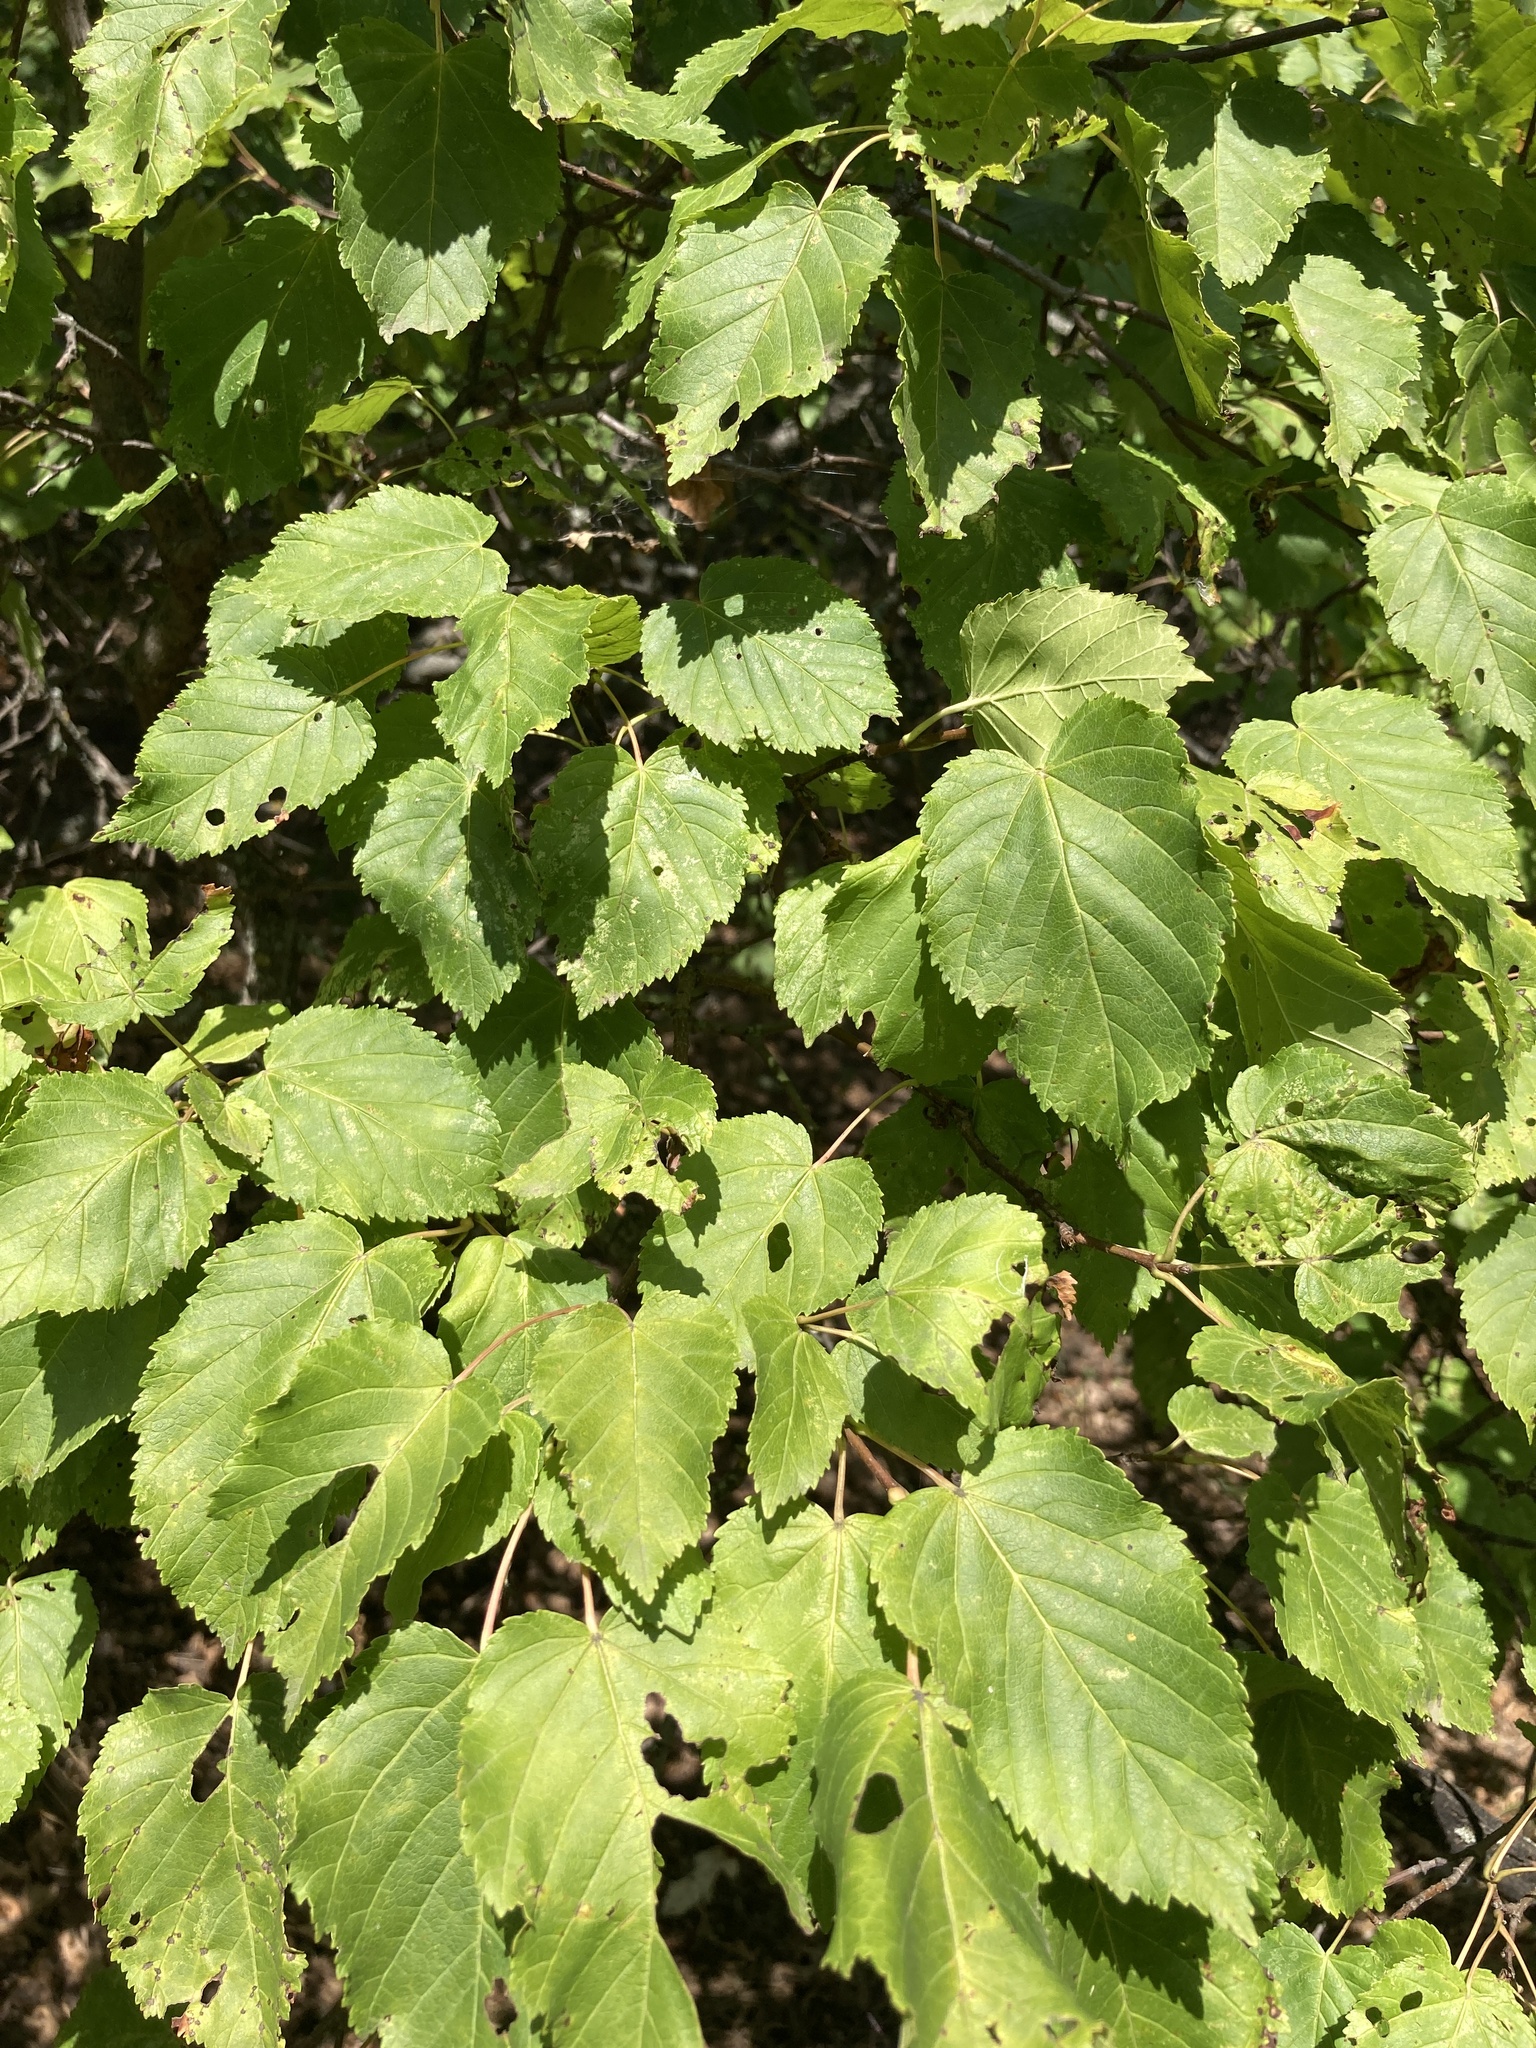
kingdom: Plantae
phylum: Tracheophyta
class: Magnoliopsida
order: Sapindales
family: Sapindaceae
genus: Acer
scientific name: Acer tataricum
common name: Tartar maple
